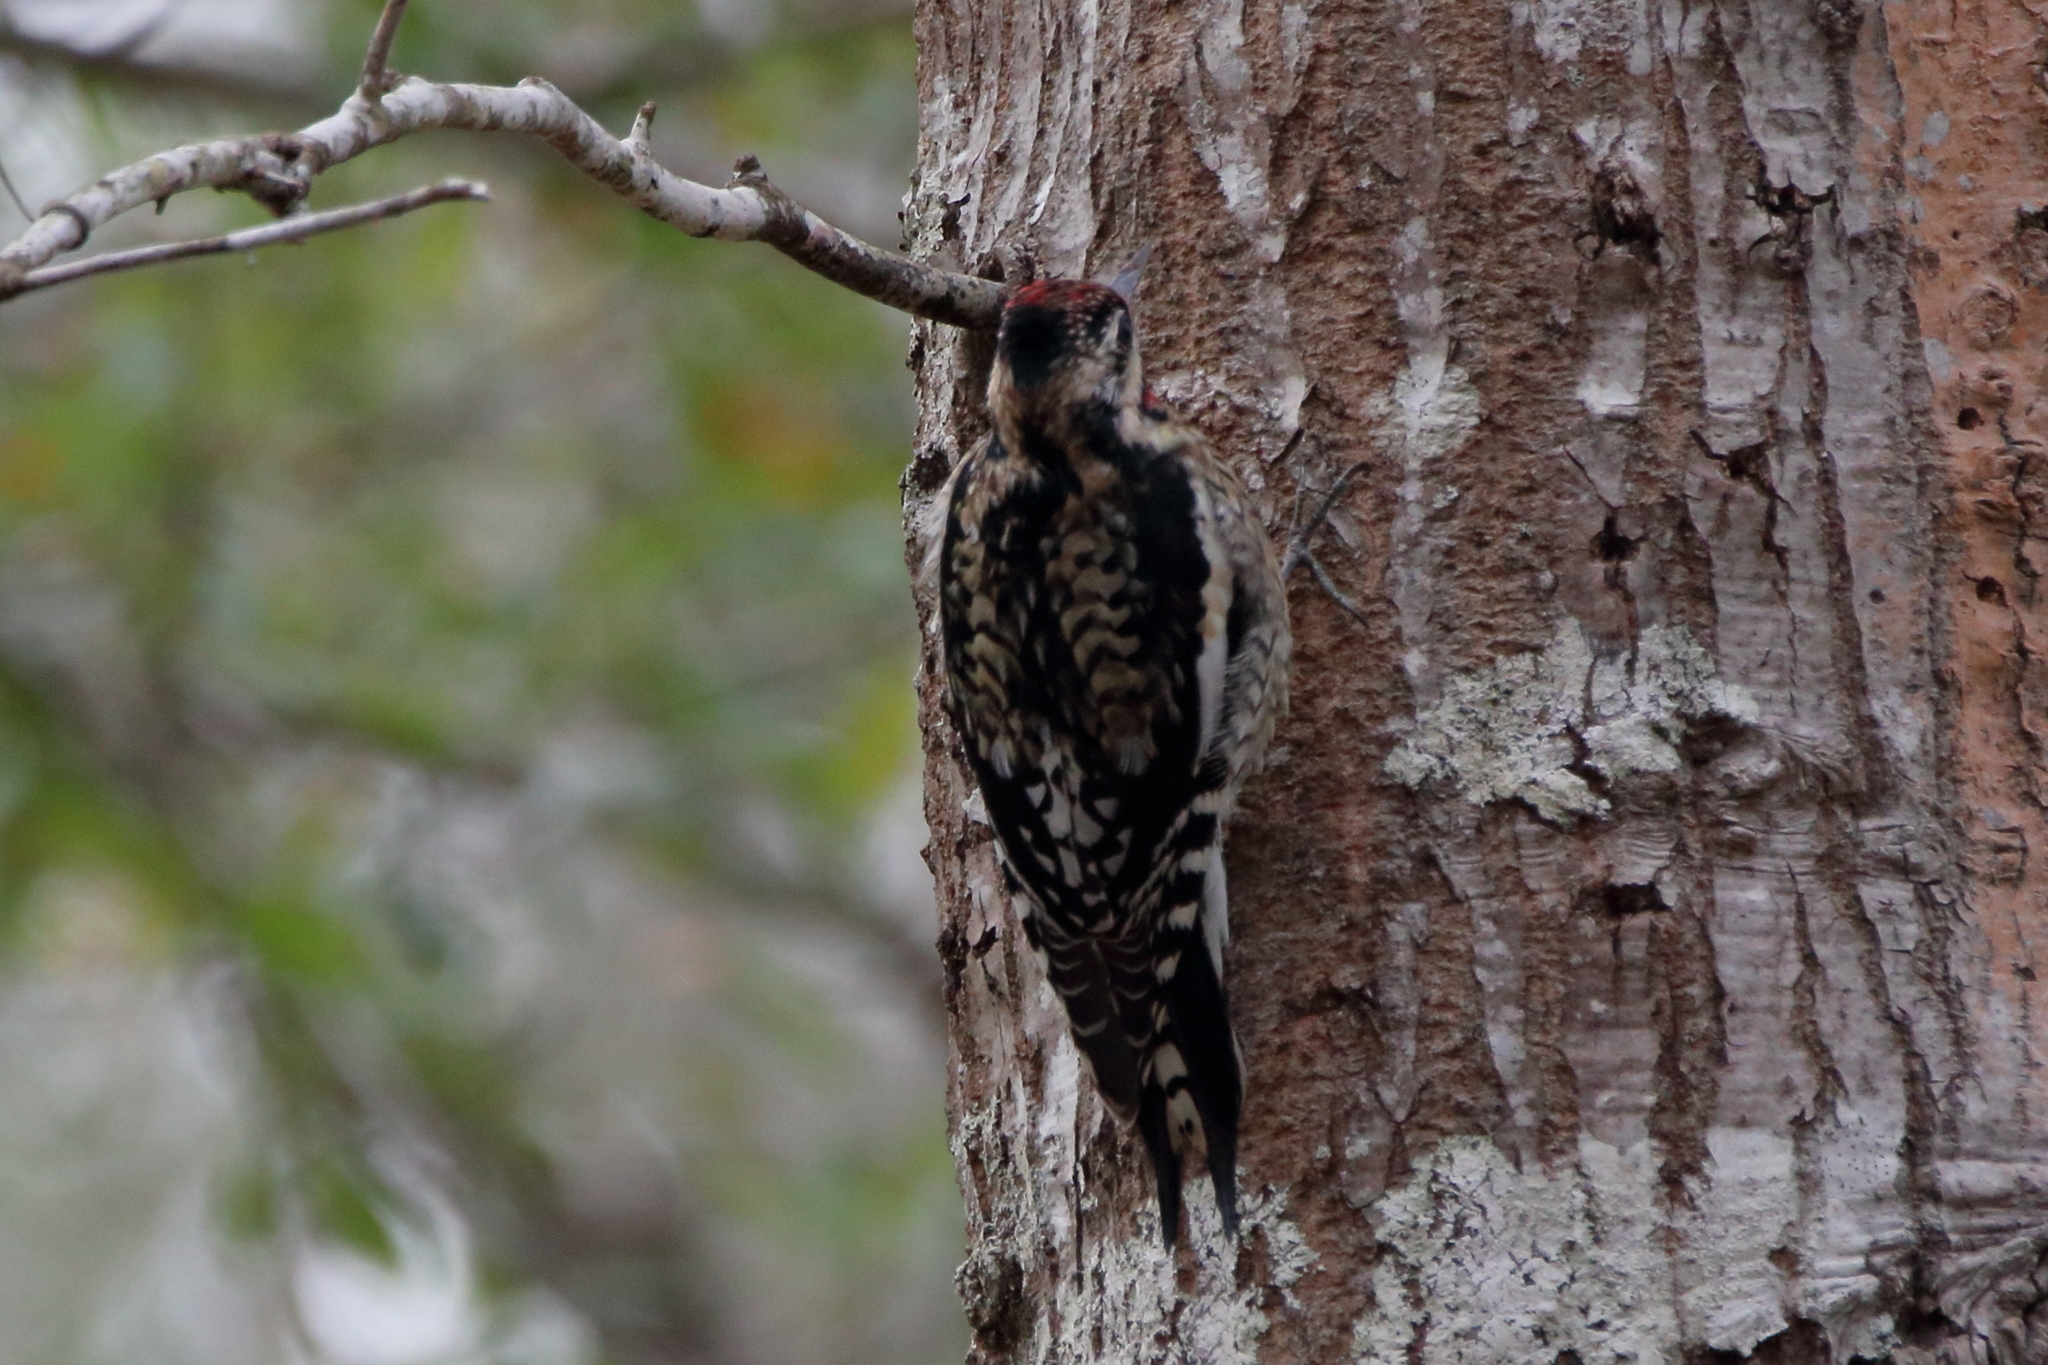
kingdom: Animalia
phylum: Chordata
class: Aves
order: Piciformes
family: Picidae
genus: Sphyrapicus
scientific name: Sphyrapicus varius
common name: Yellow-bellied sapsucker
